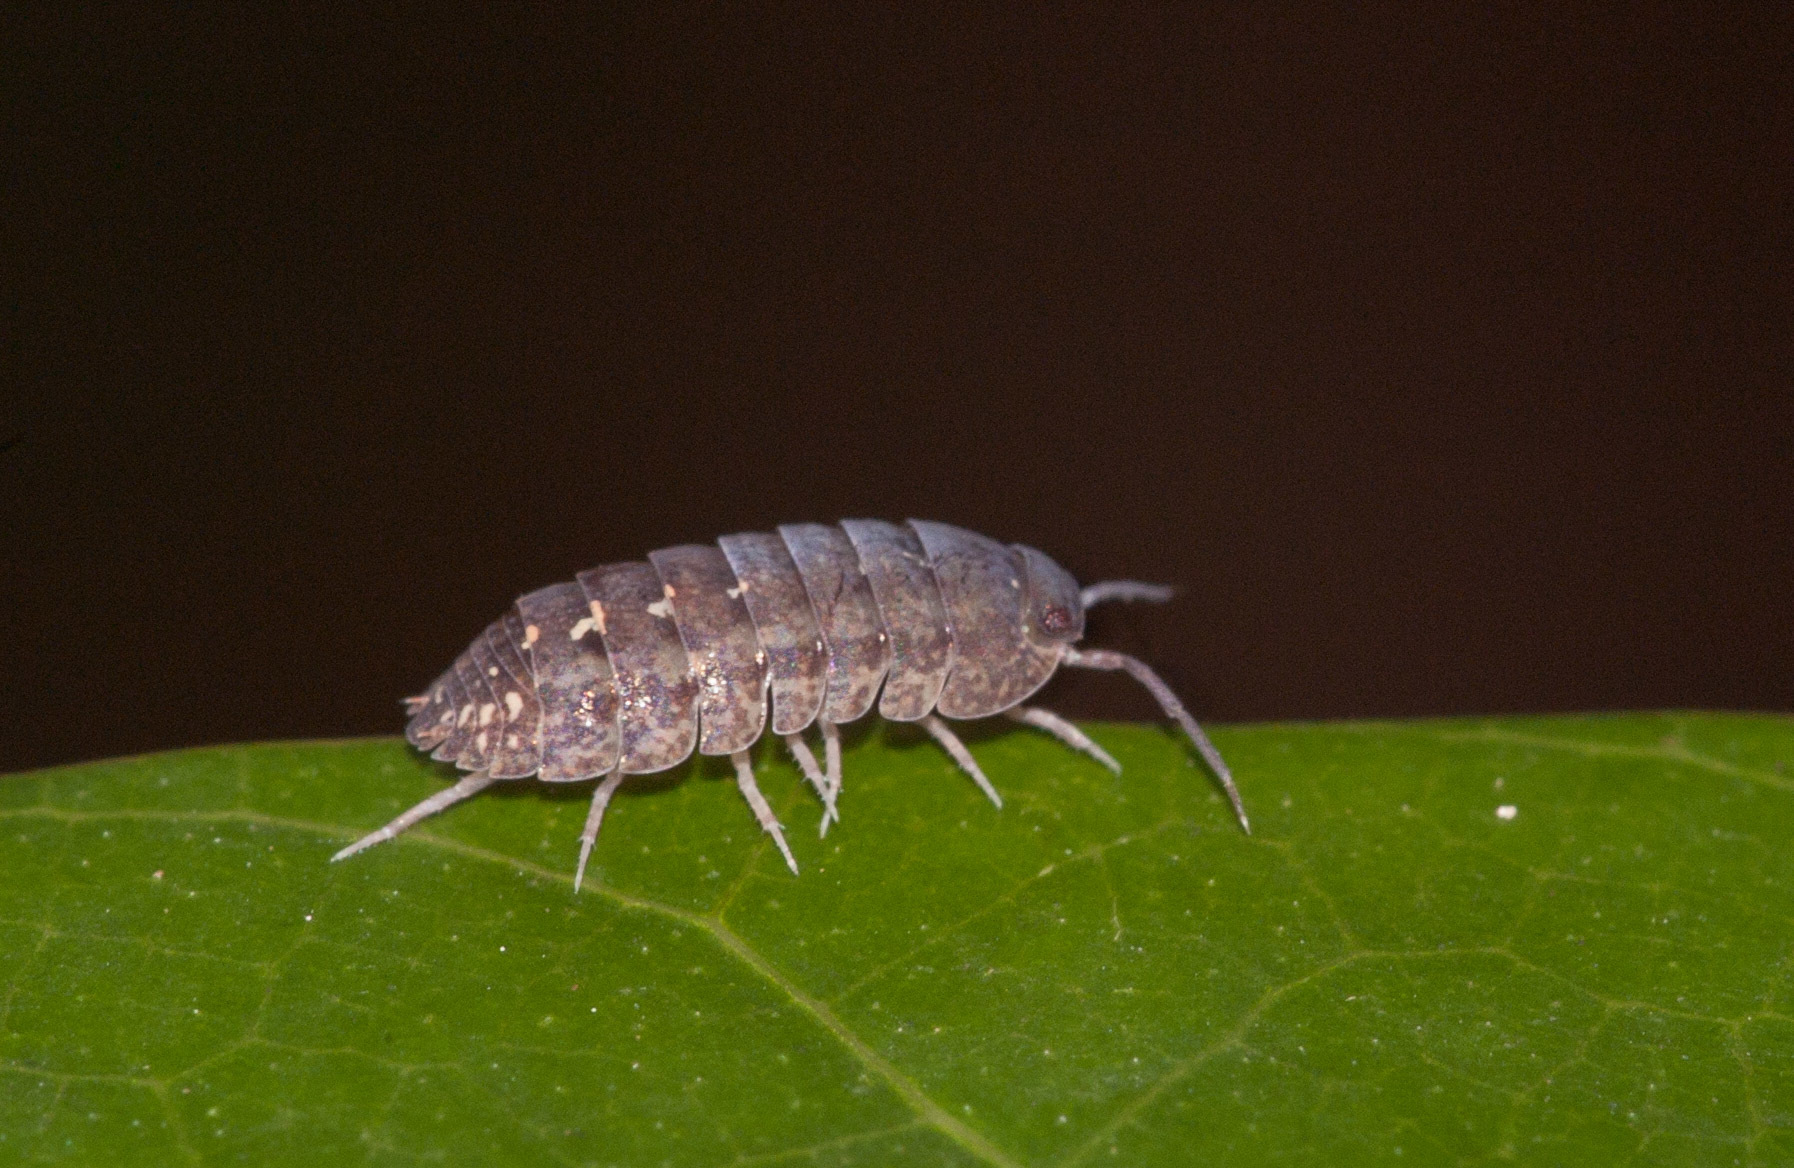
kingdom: Animalia
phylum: Arthropoda
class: Malacostraca
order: Isopoda
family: Armadillidae
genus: Cubaris
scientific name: Cubaris marmorata
